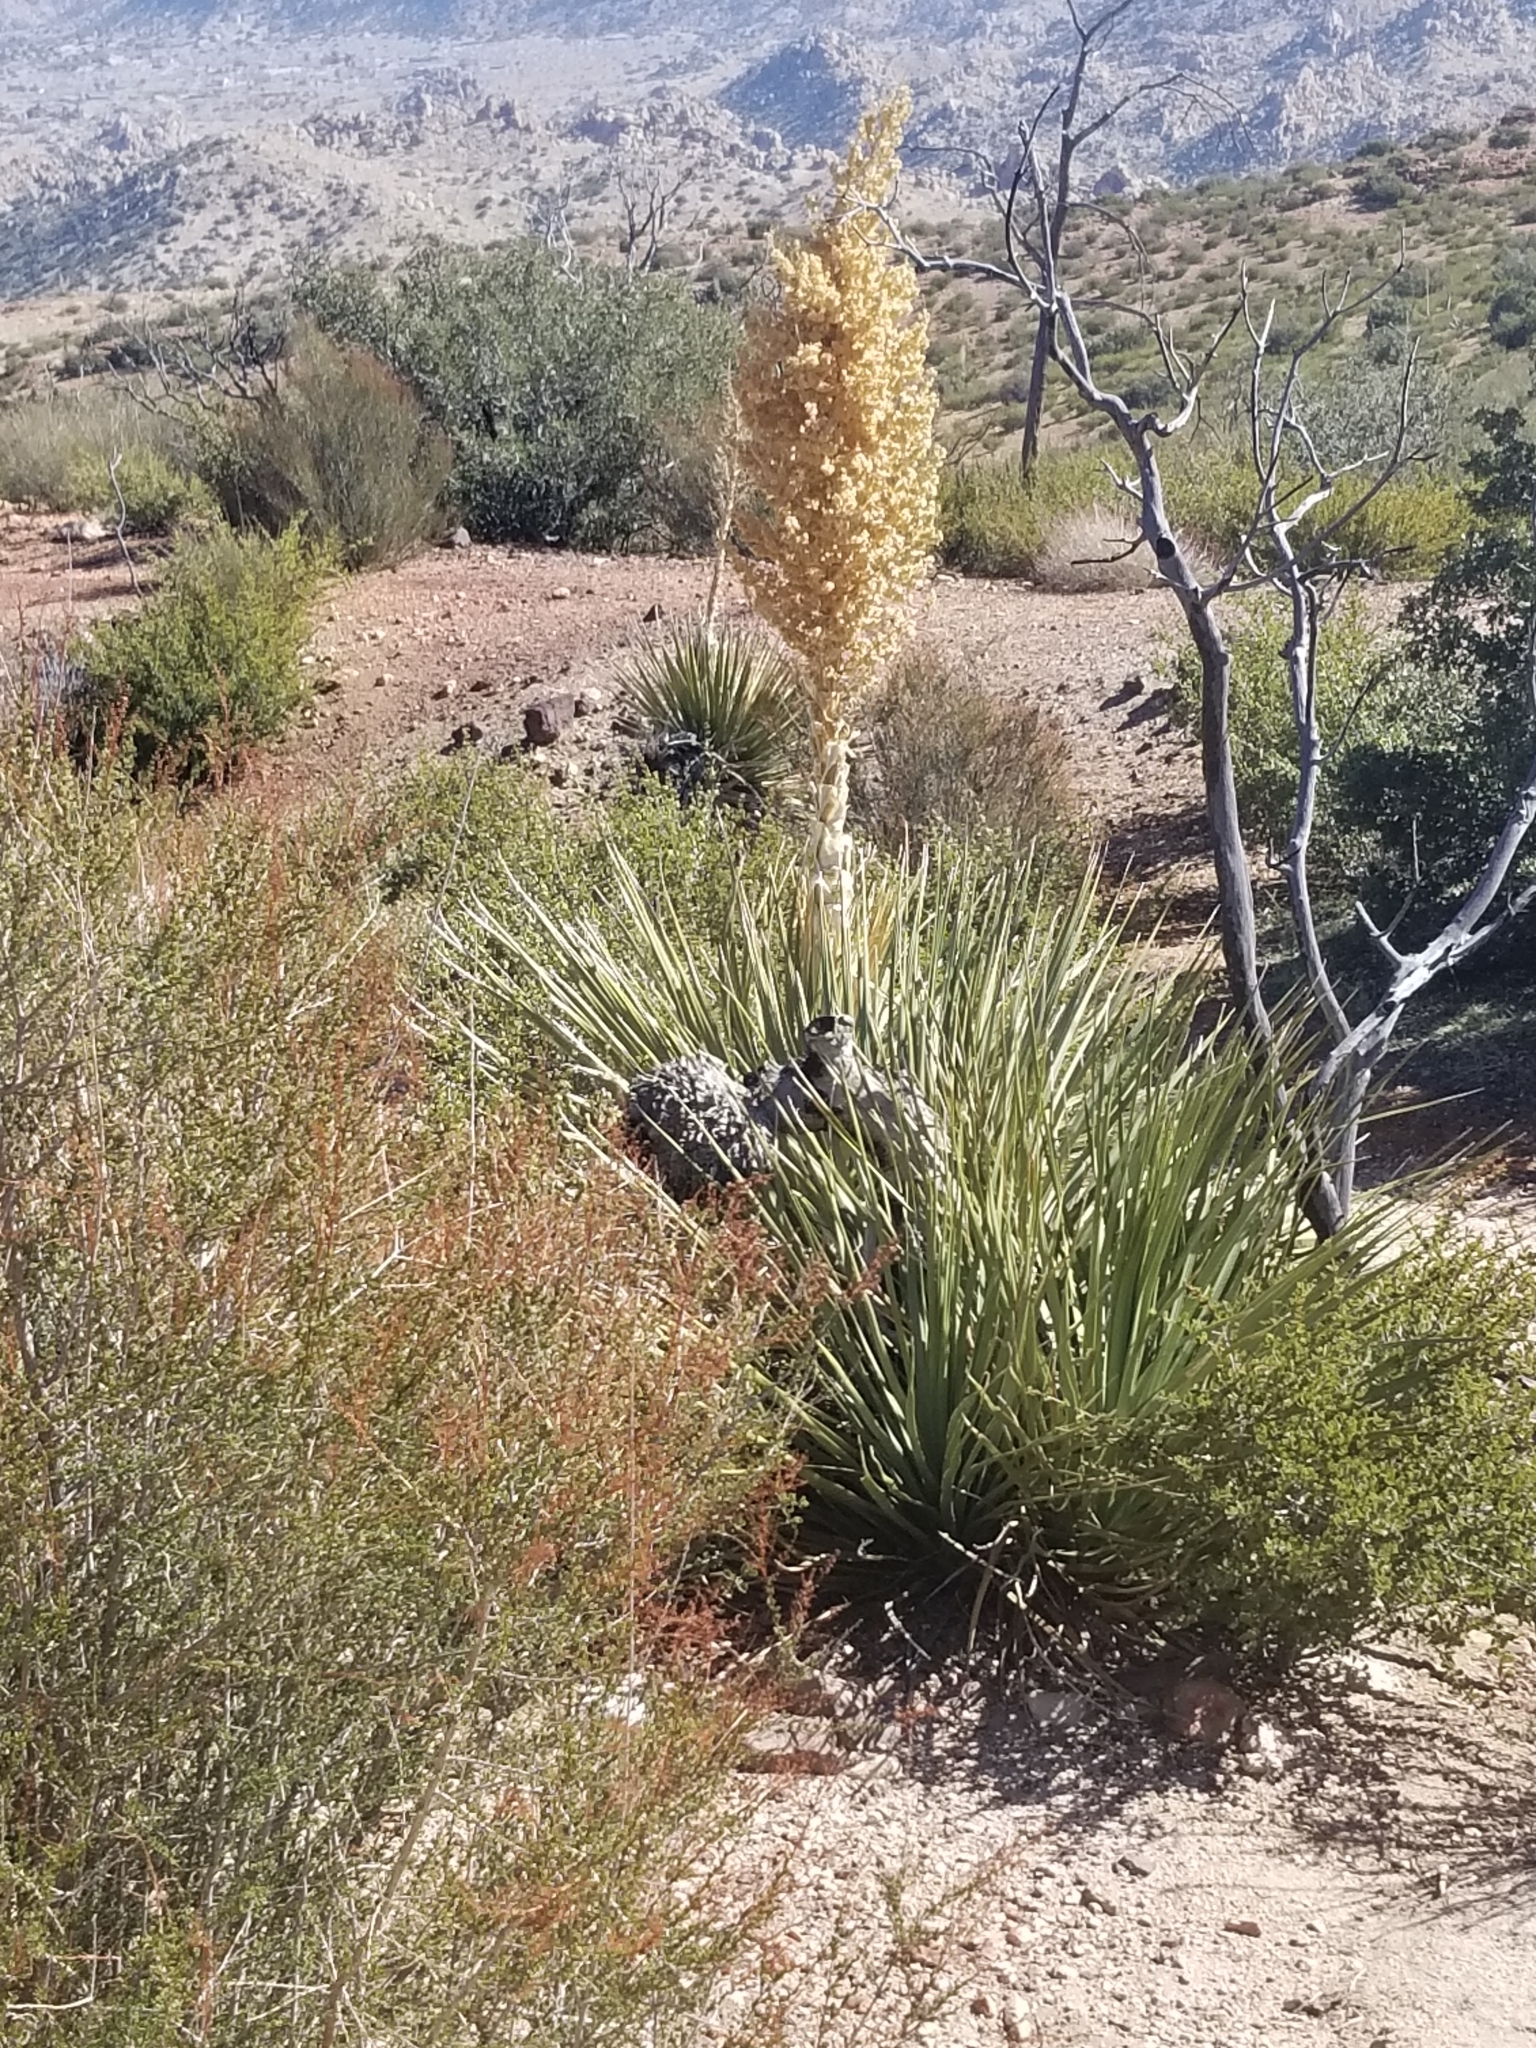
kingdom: Plantae
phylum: Tracheophyta
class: Liliopsida
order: Asparagales
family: Asparagaceae
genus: Nolina
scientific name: Nolina parryi
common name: Parry nolina
